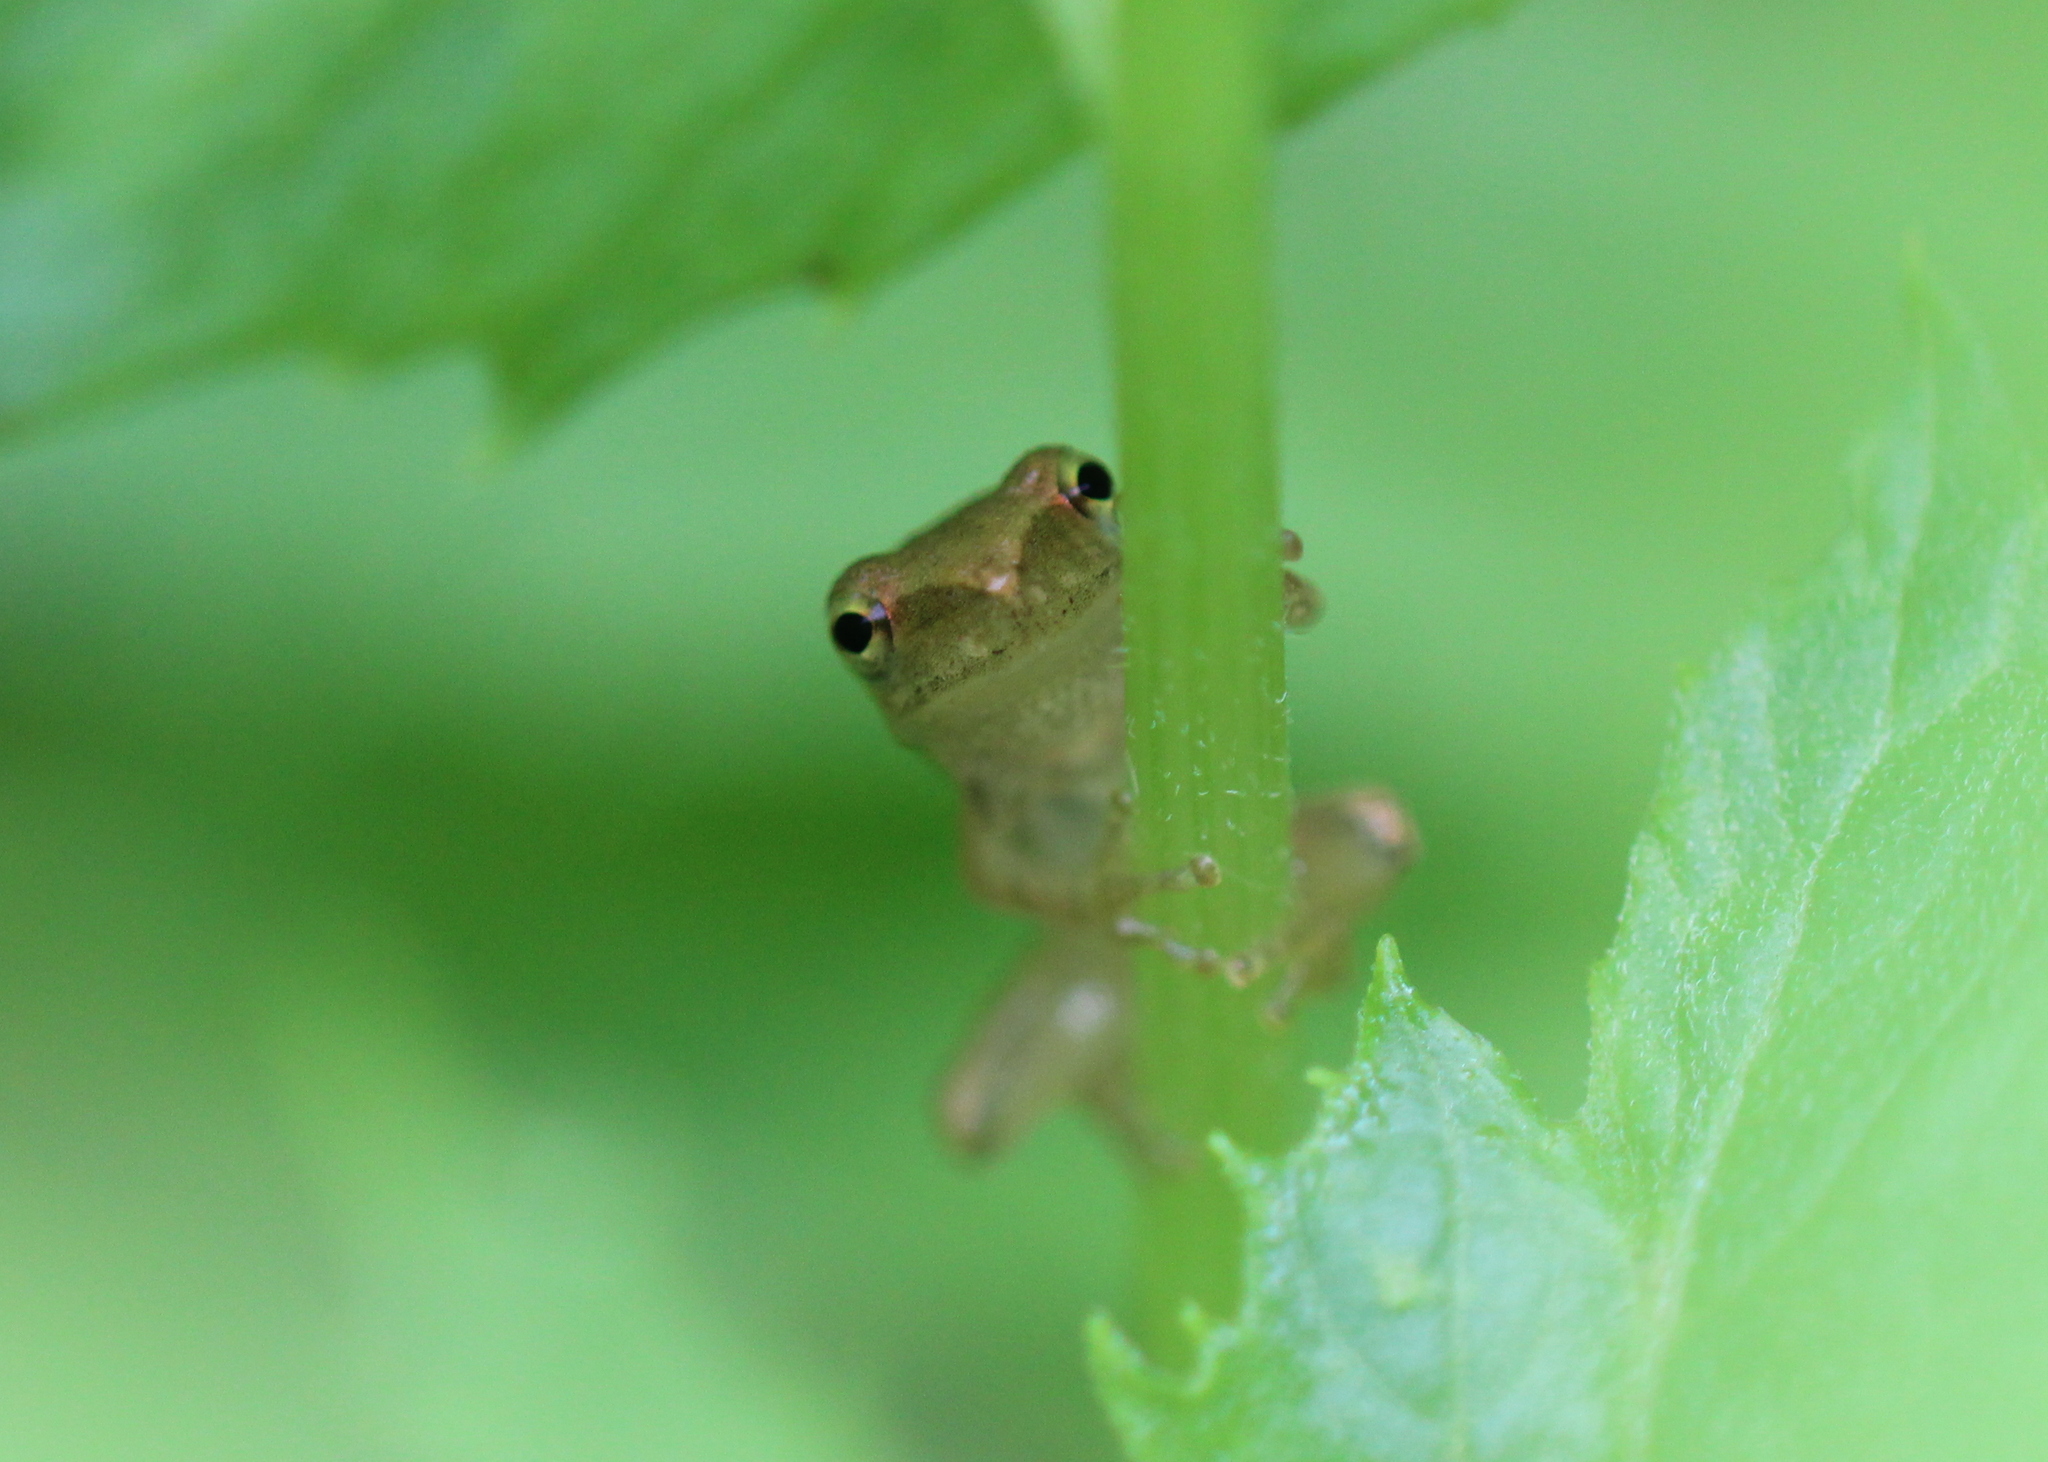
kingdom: Animalia
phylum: Chordata
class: Amphibia
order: Anura
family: Hylidae
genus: Pseudacris
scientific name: Pseudacris crucifer
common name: Spring peeper
